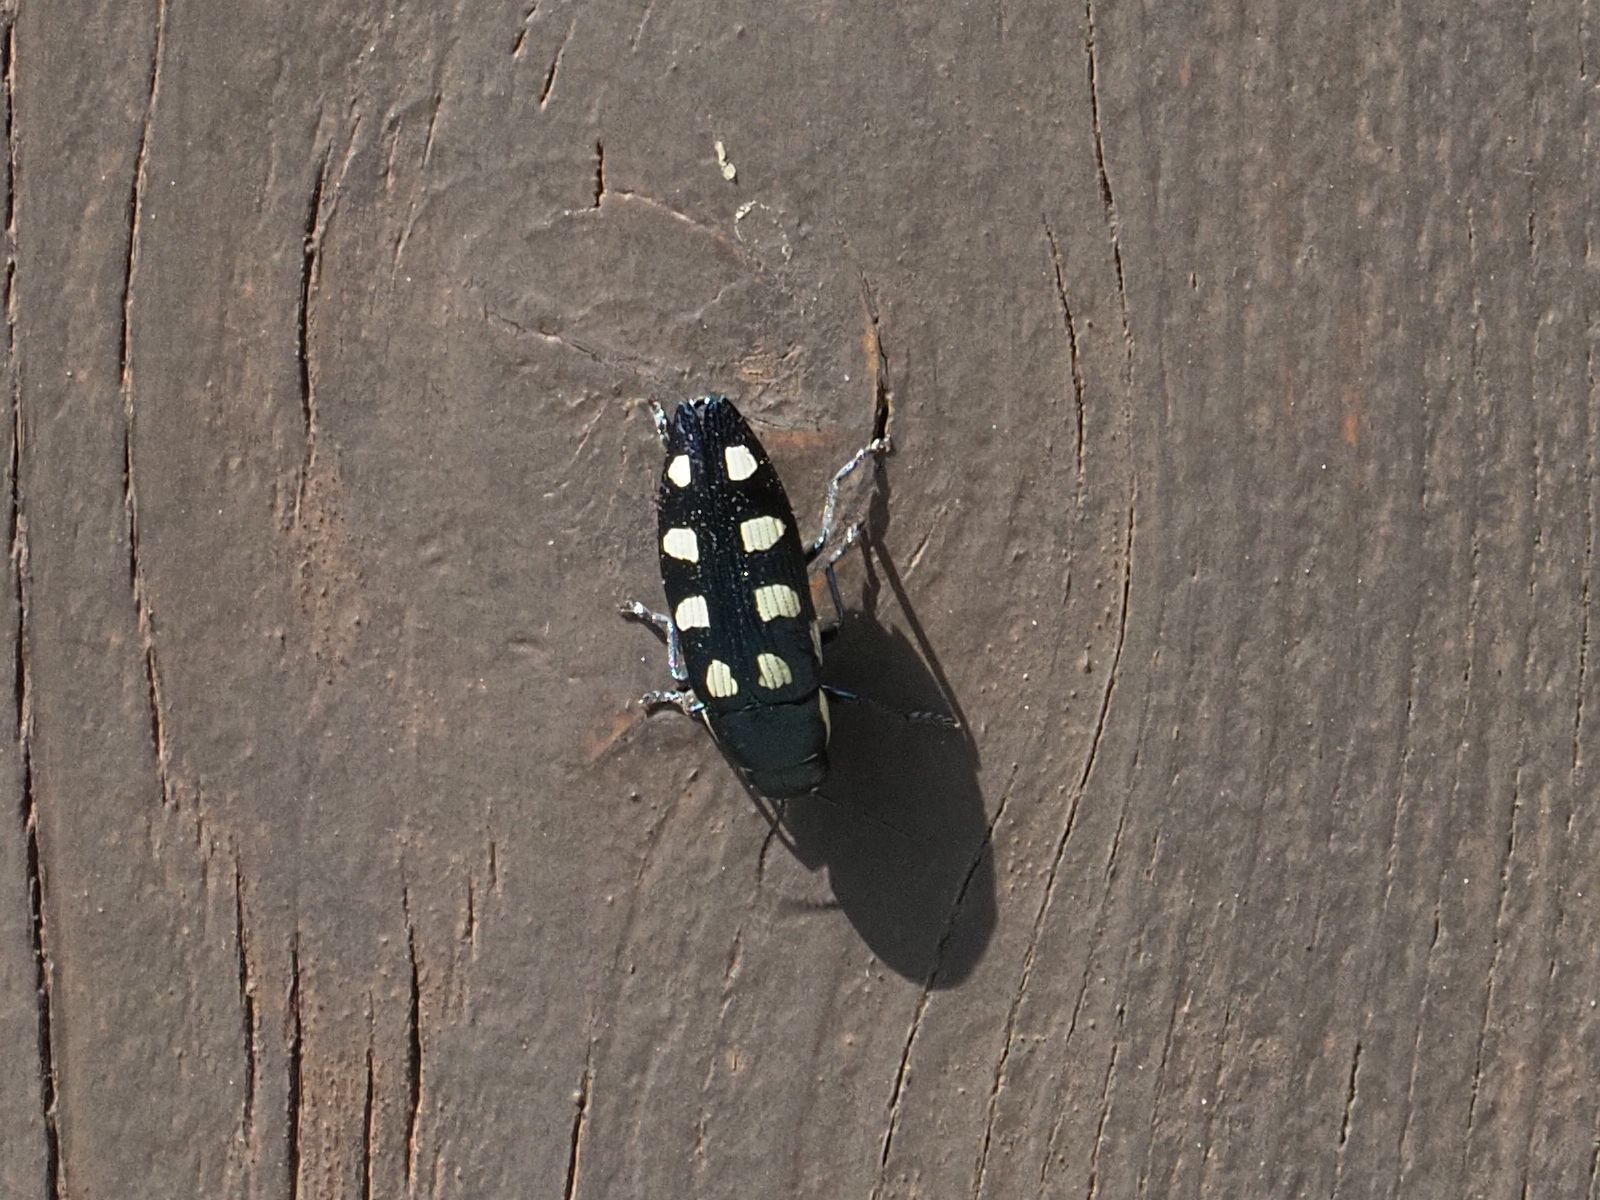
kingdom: Animalia
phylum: Arthropoda
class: Insecta
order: Coleoptera
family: Buprestidae
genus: Buprestis
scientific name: Buprestis octoguttata
